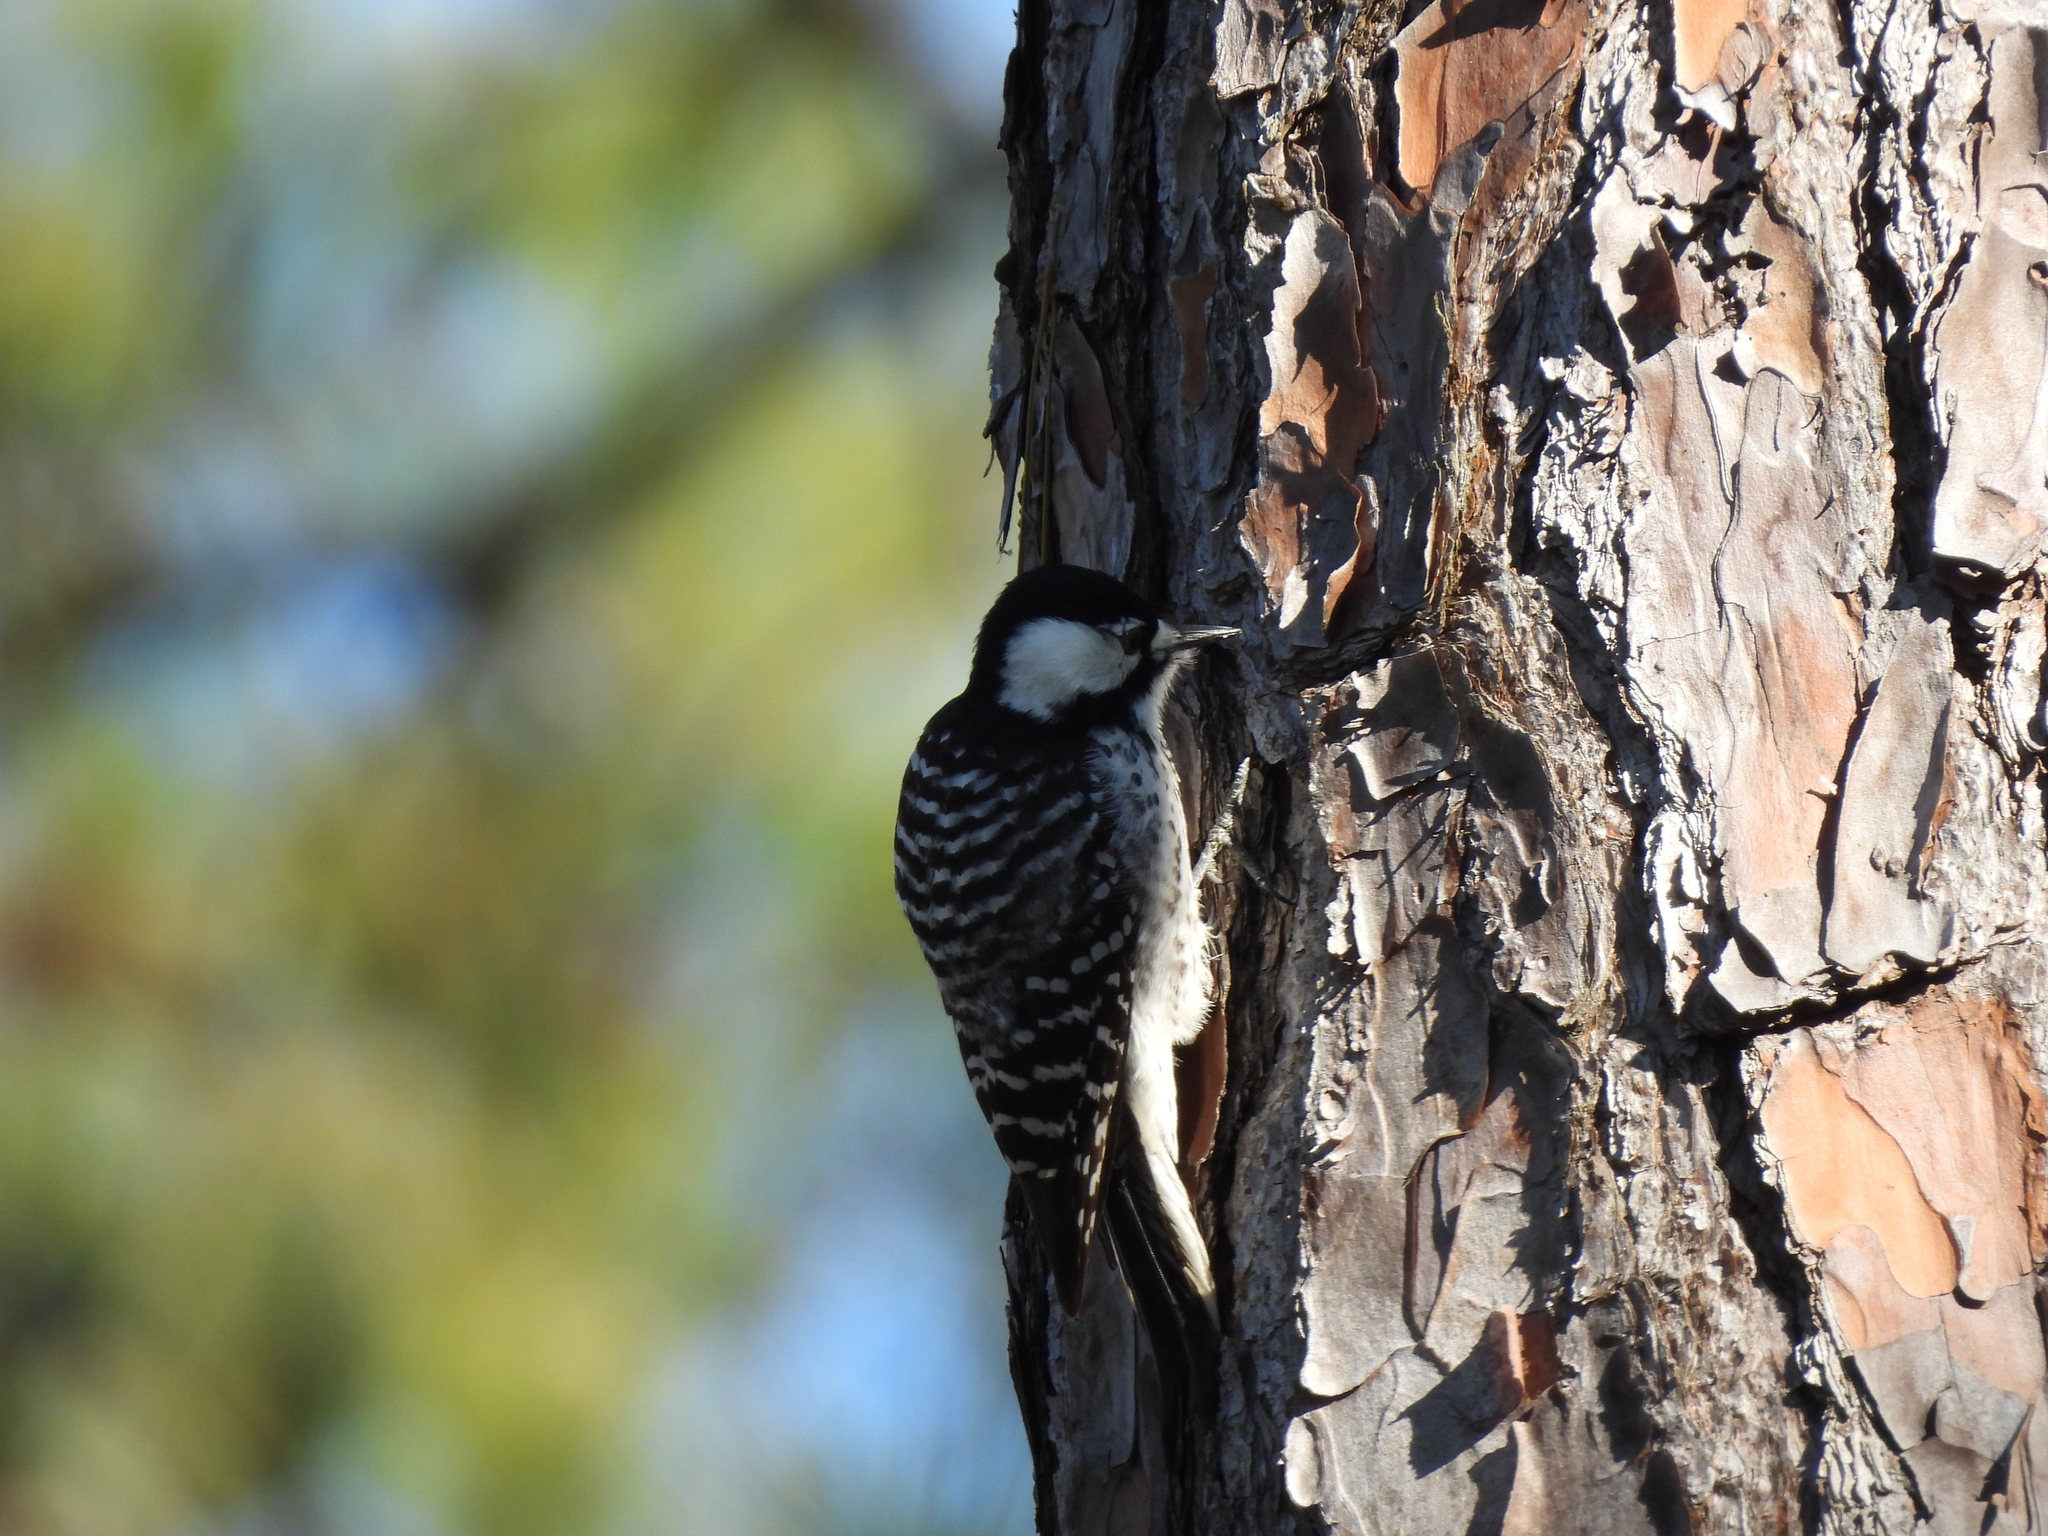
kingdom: Animalia
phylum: Chordata
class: Aves
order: Piciformes
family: Picidae
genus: Leuconotopicus
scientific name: Leuconotopicus borealis
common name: Red-cockaded woodpecker
